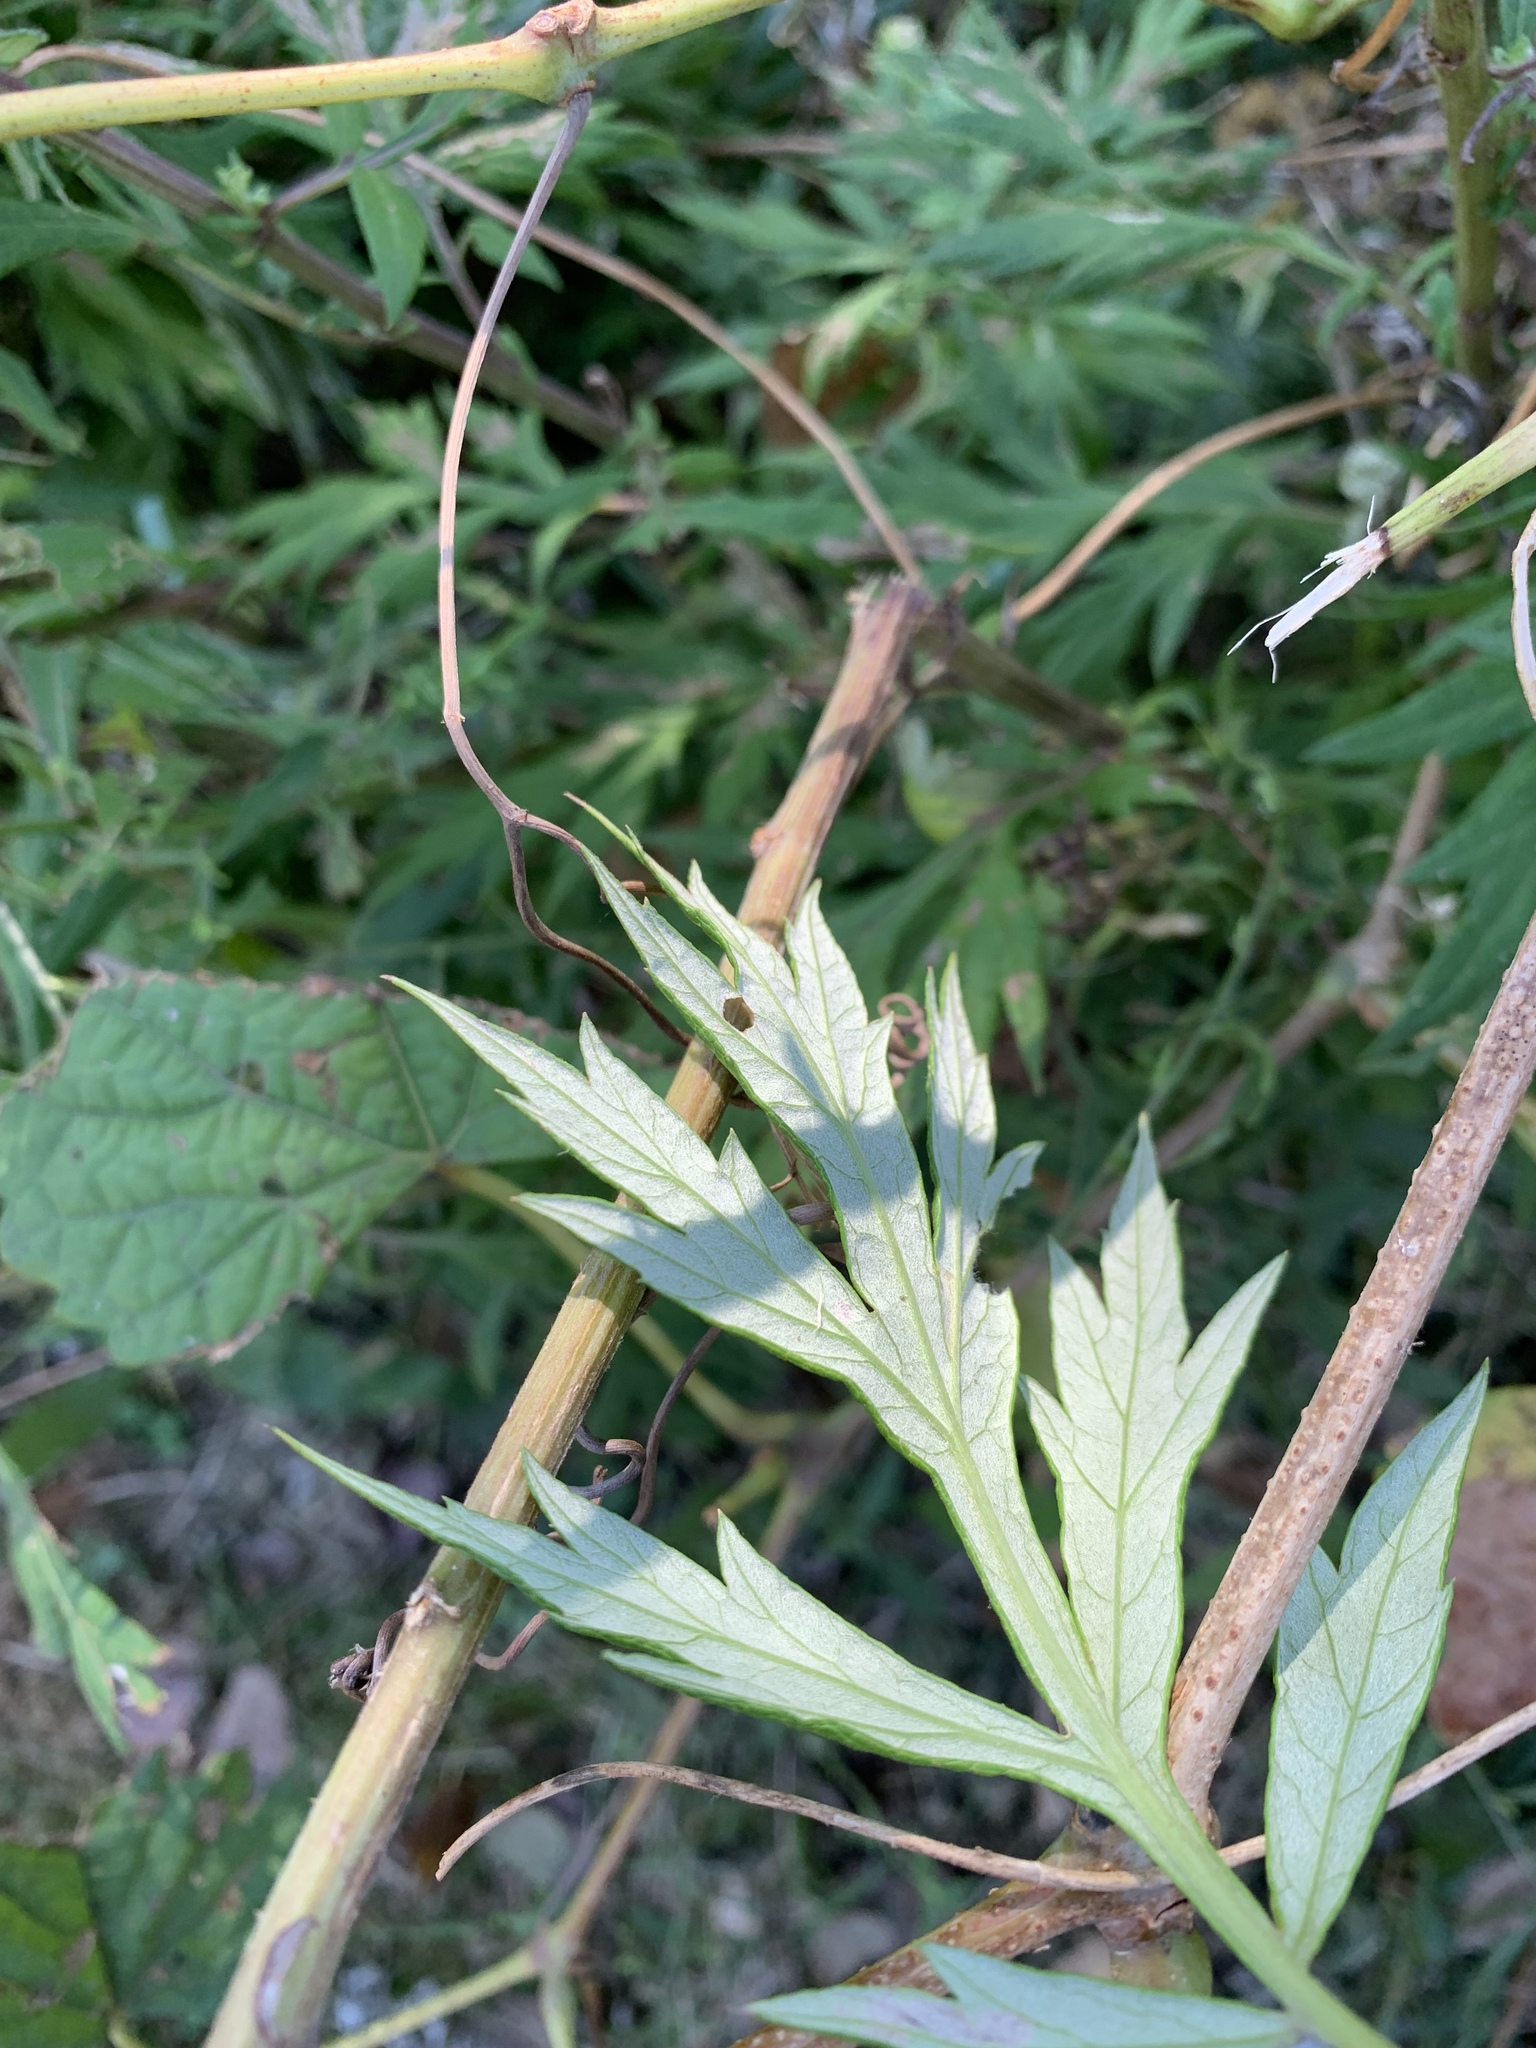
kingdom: Plantae
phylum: Tracheophyta
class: Magnoliopsida
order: Asterales
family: Asteraceae
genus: Artemisia
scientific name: Artemisia vulgaris
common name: Mugwort
